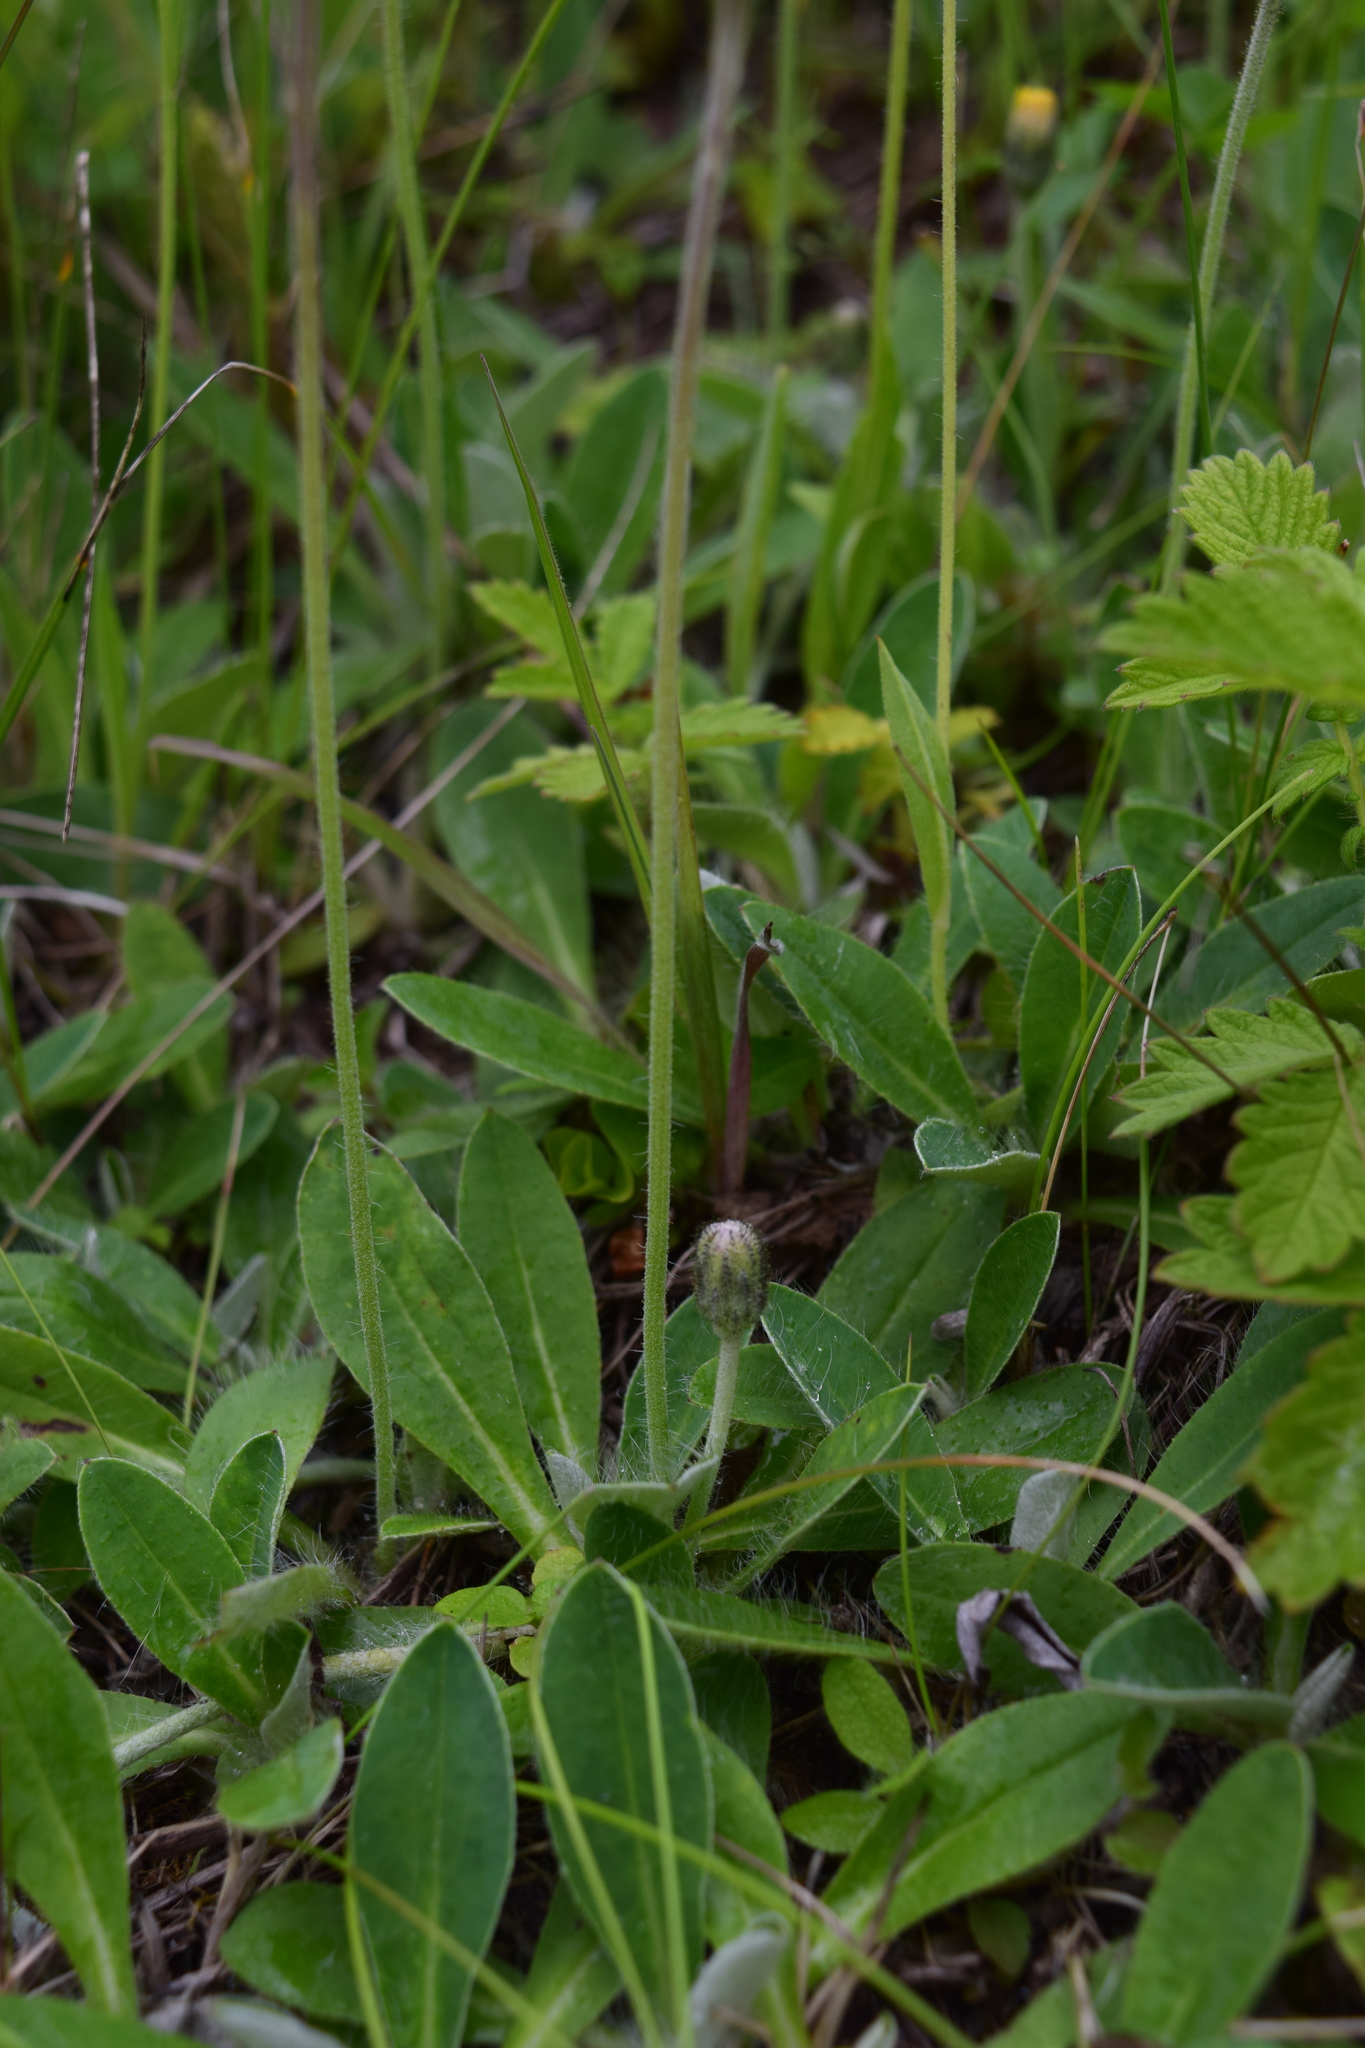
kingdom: Plantae
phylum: Tracheophyta
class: Magnoliopsida
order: Asterales
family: Asteraceae
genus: Pilosella
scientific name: Pilosella officinarum
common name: Mouse-ear hawkweed
